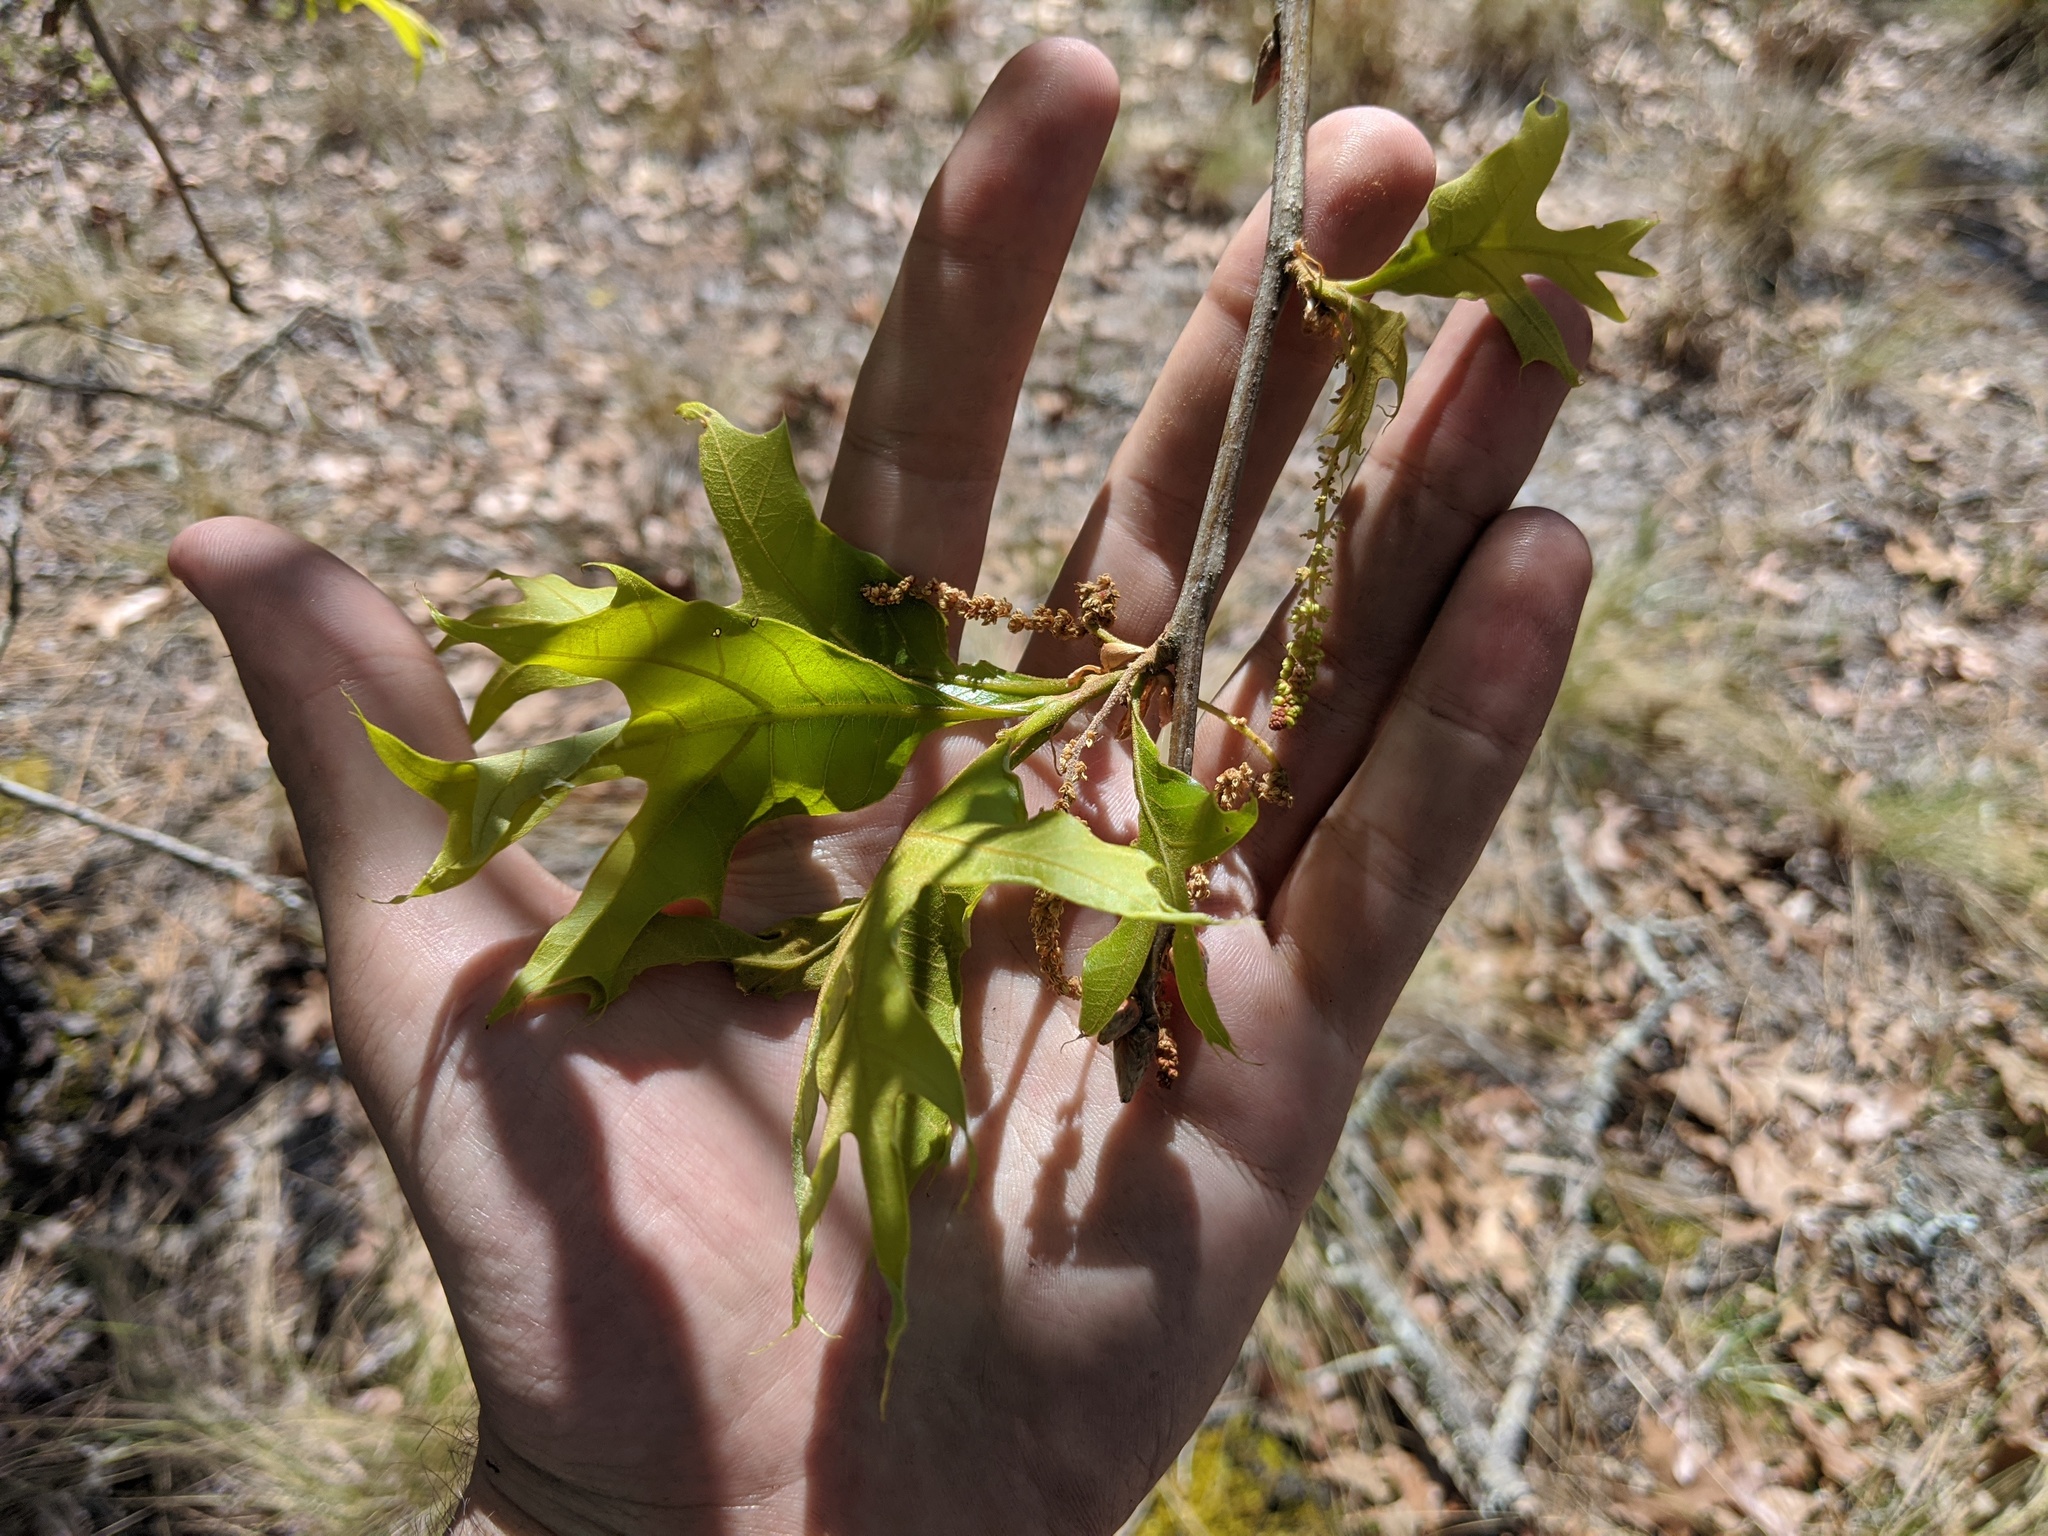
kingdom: Plantae
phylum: Tracheophyta
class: Magnoliopsida
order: Fagales
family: Fagaceae
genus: Quercus
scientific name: Quercus laevis
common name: Turkey oak
